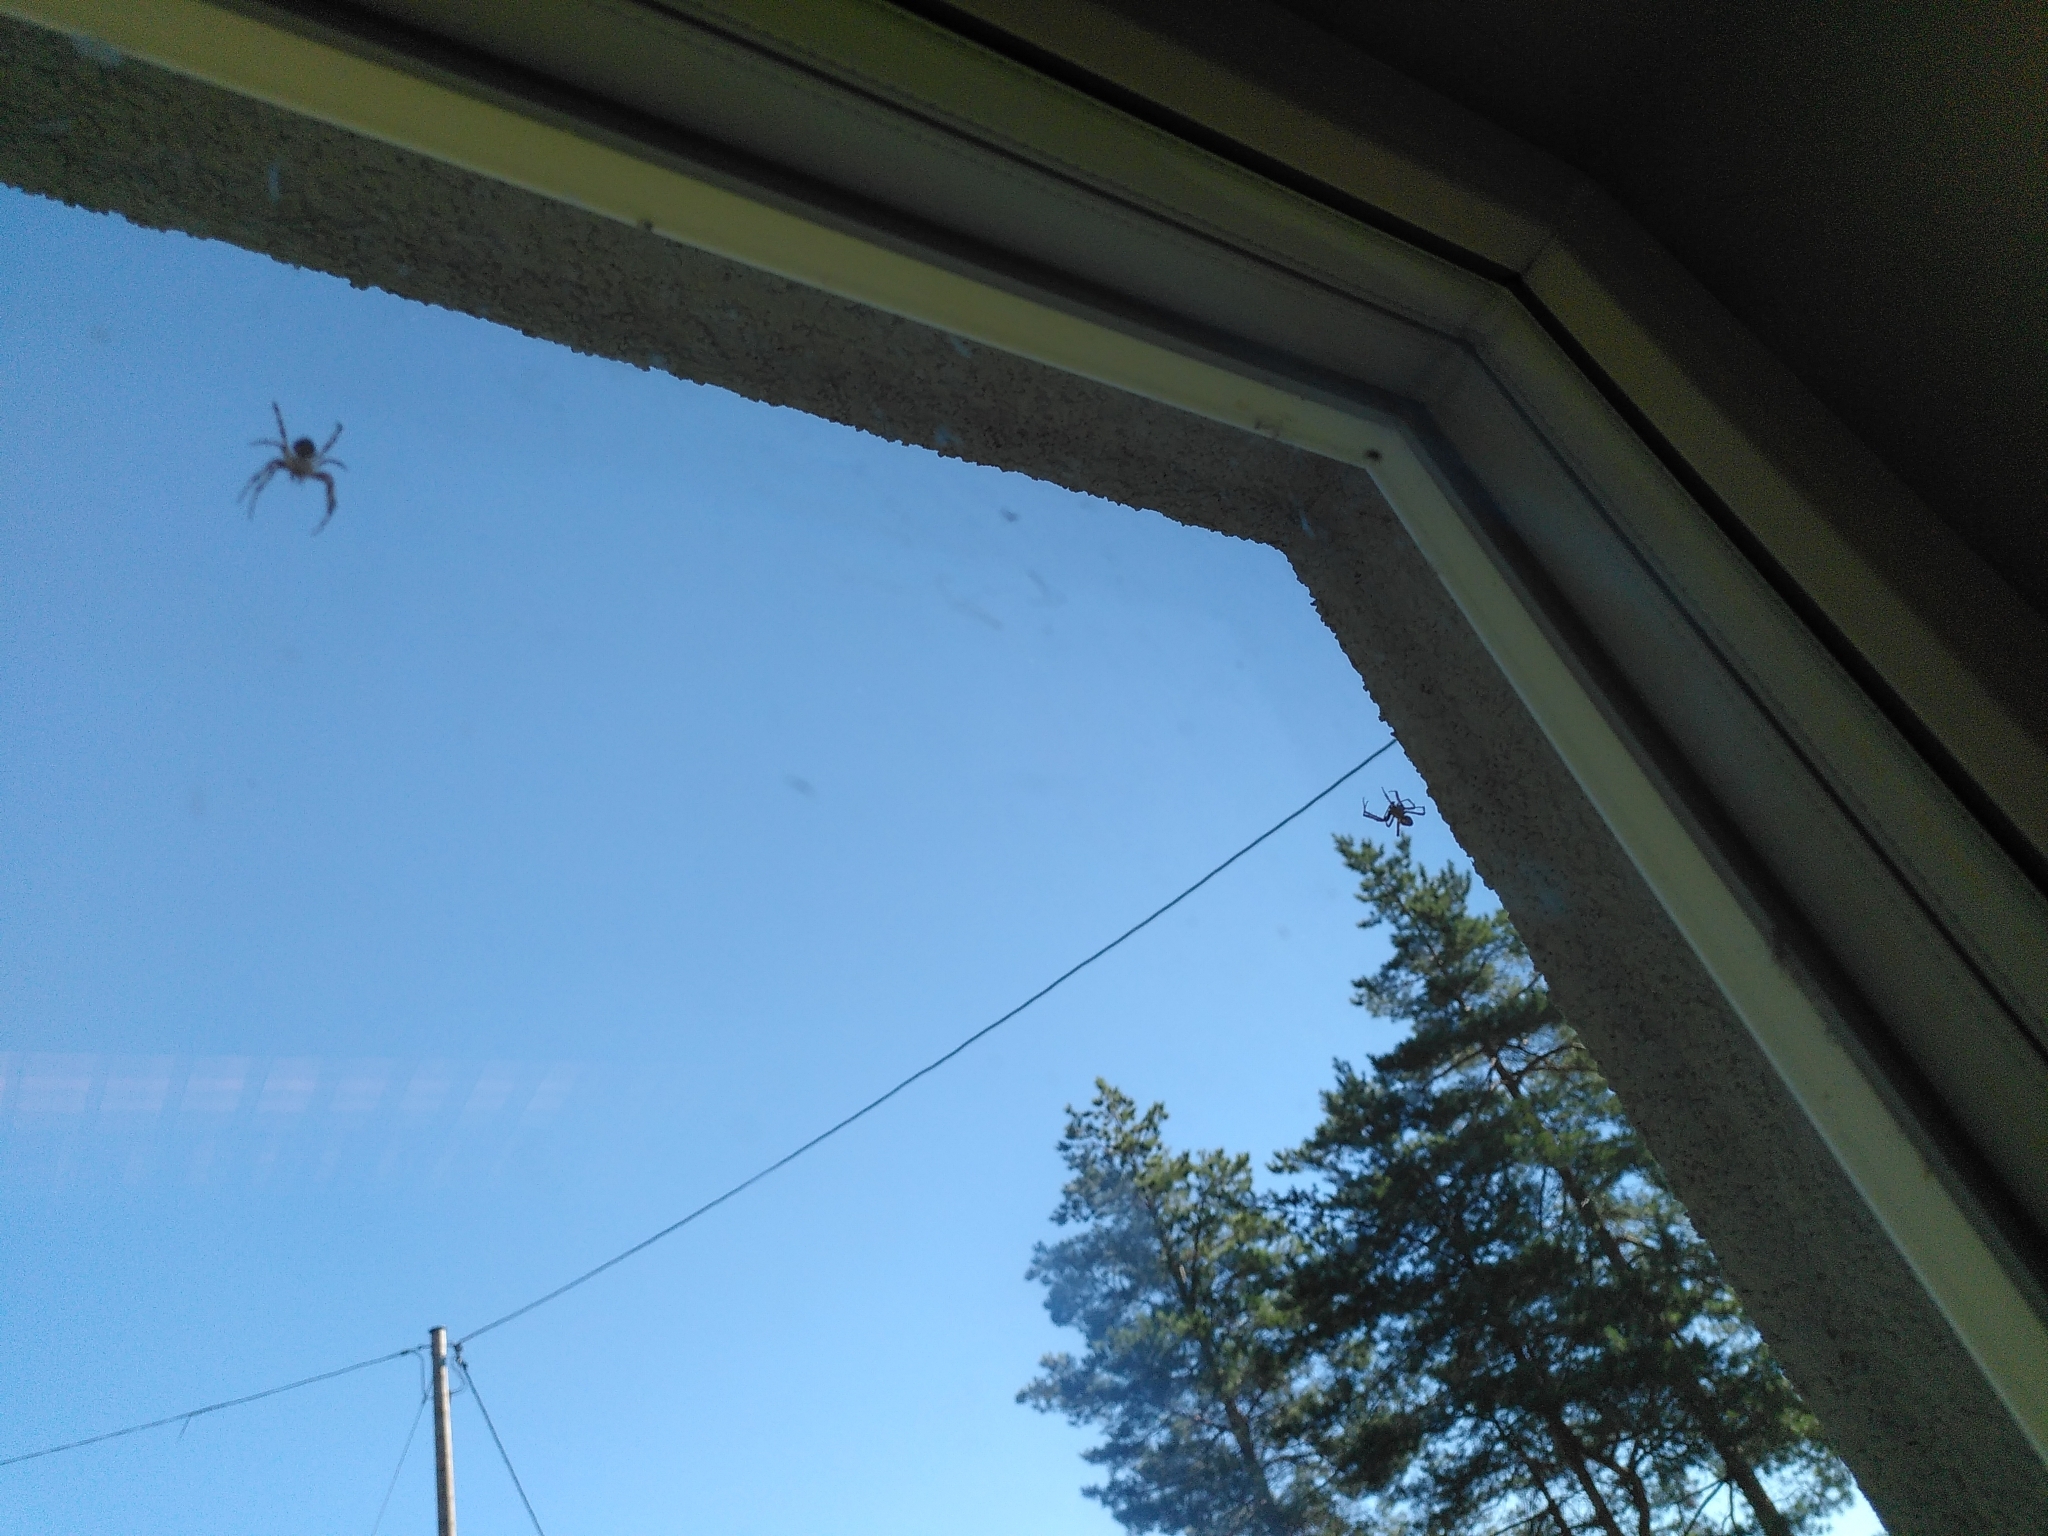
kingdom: Animalia
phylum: Arthropoda
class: Arachnida
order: Araneae
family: Araneidae
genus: Araneus
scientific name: Araneus diadematus
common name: Cross orbweaver
